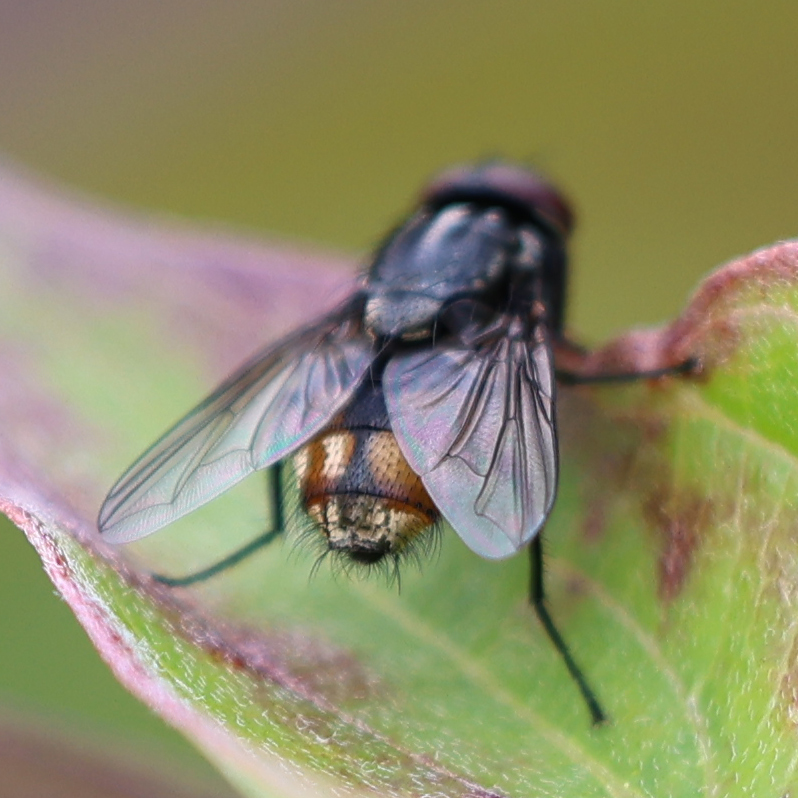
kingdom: Animalia
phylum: Arthropoda
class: Insecta
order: Diptera
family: Muscidae
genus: Musca
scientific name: Musca autumnalis
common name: Face fly
